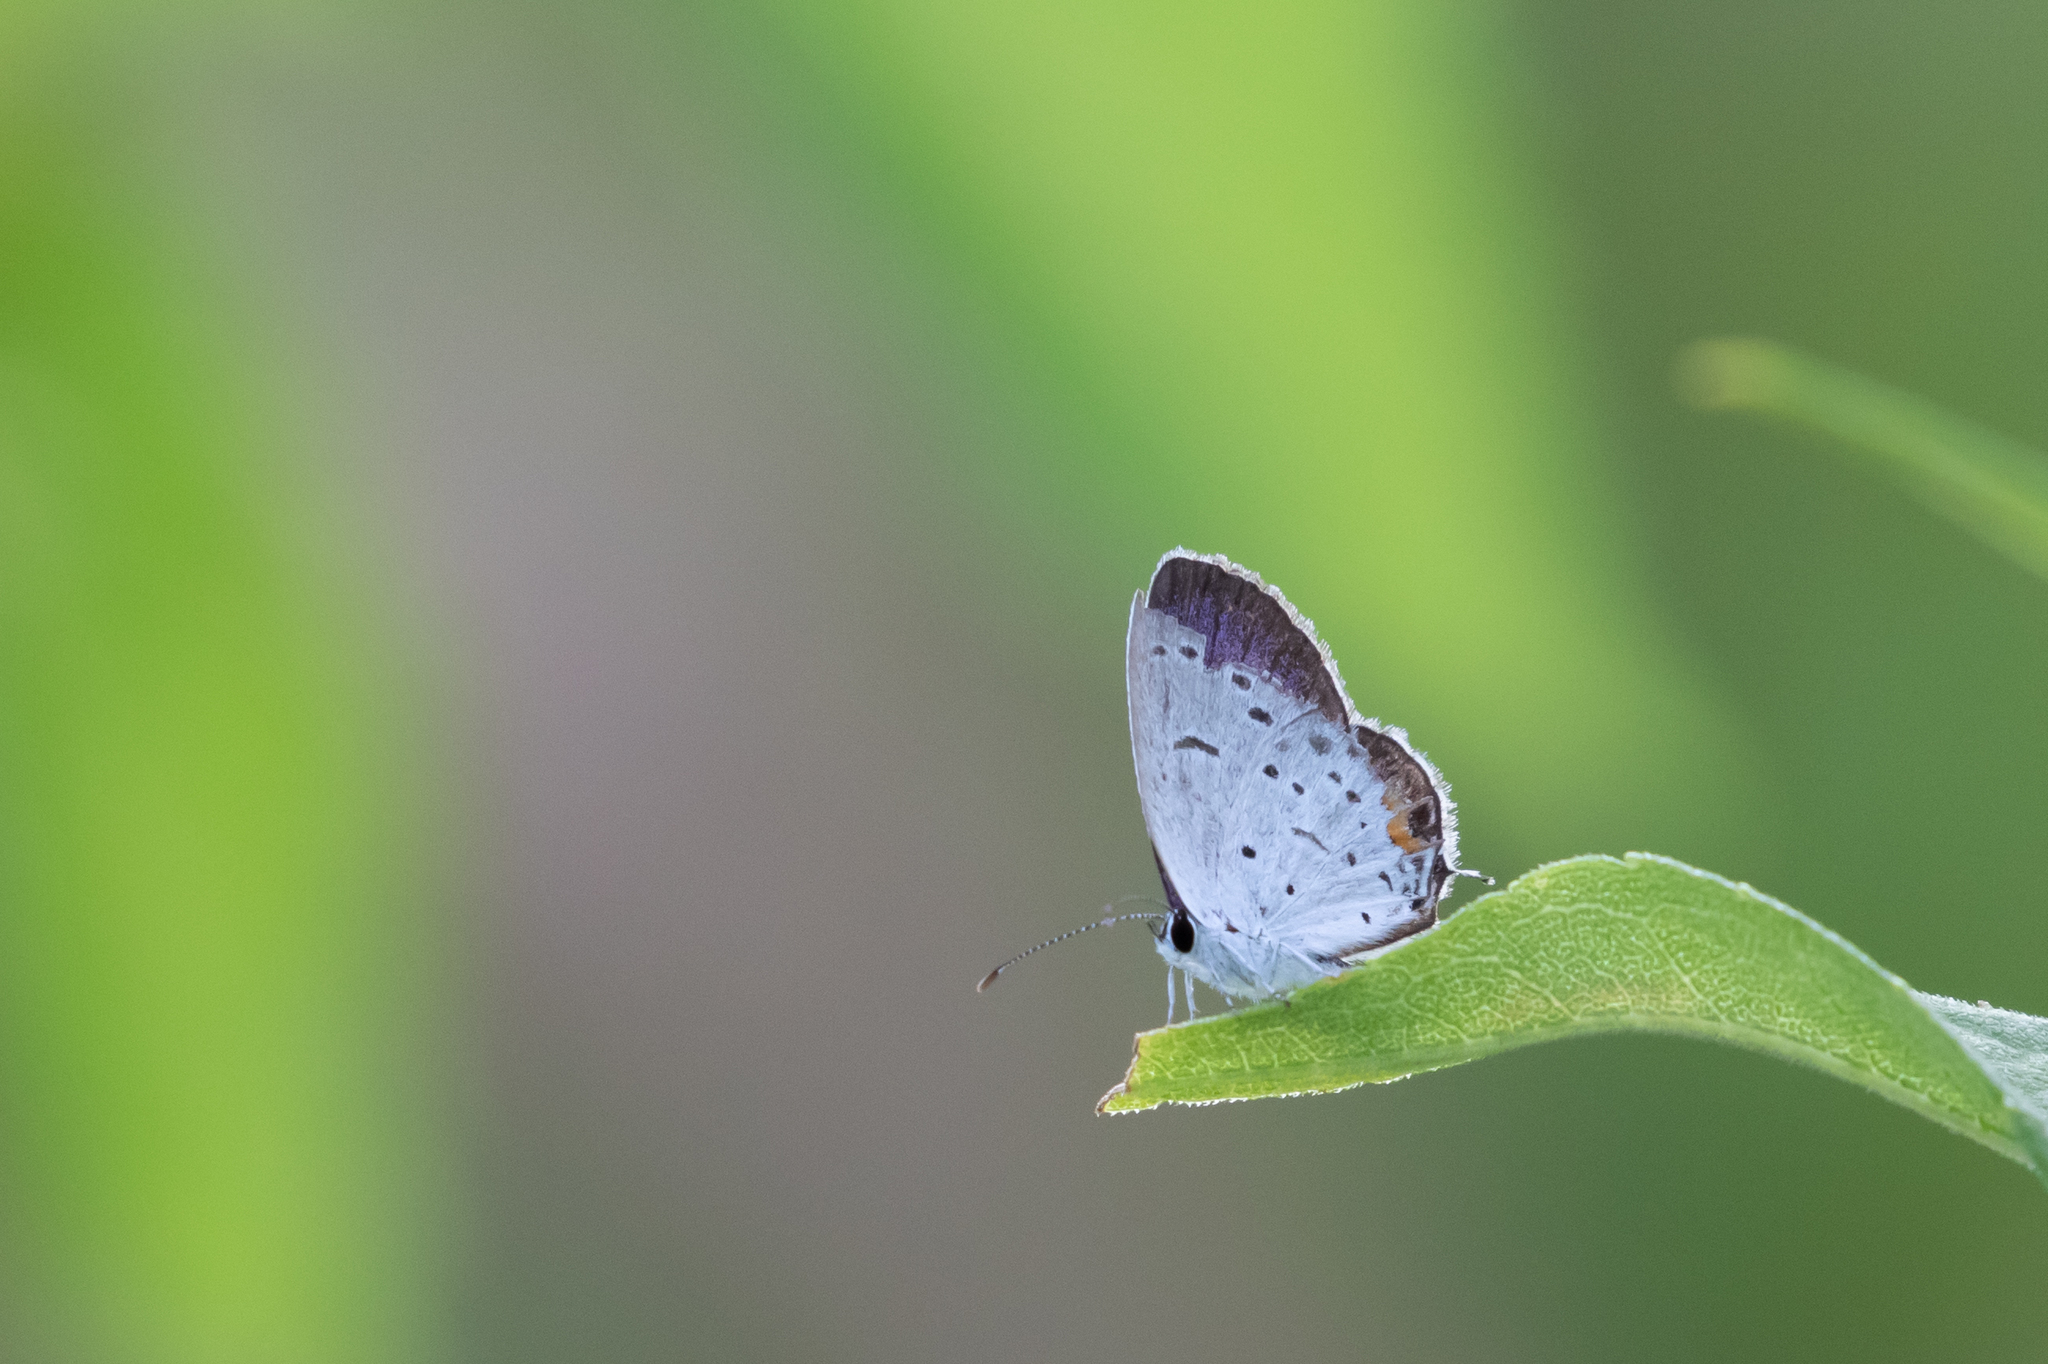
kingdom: Animalia
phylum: Arthropoda
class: Insecta
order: Lepidoptera
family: Lycaenidae
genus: Elkalyce
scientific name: Elkalyce comyntas
